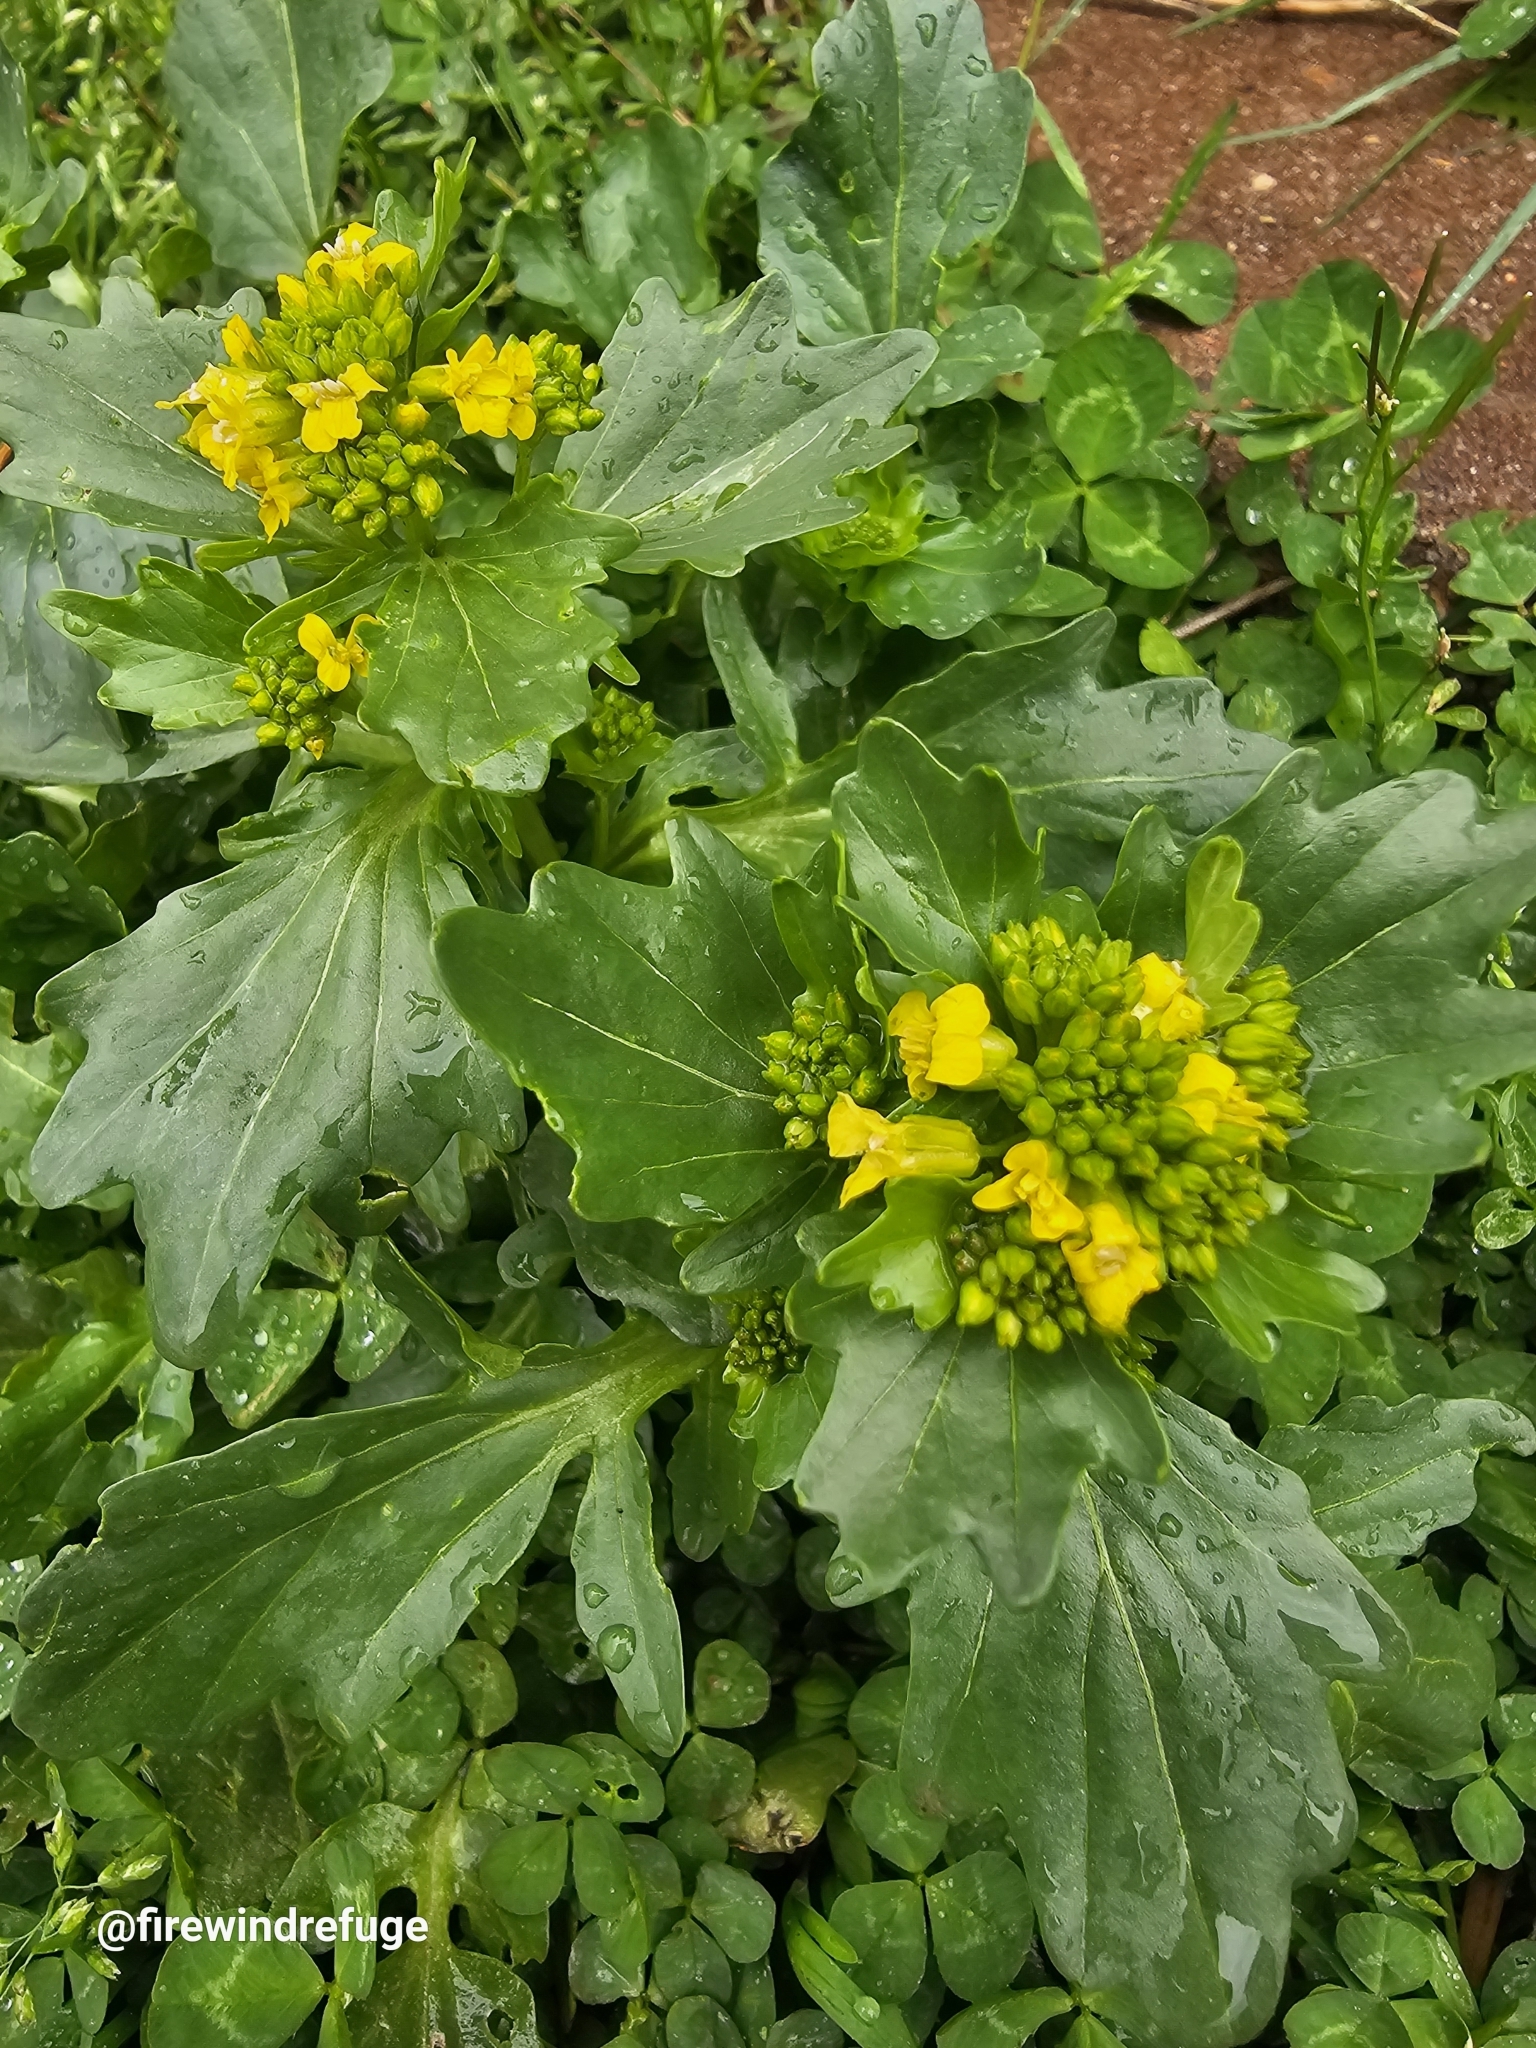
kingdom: Plantae
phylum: Tracheophyta
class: Magnoliopsida
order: Brassicales
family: Brassicaceae
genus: Barbarea
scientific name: Barbarea vulgaris
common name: Cressy-greens
